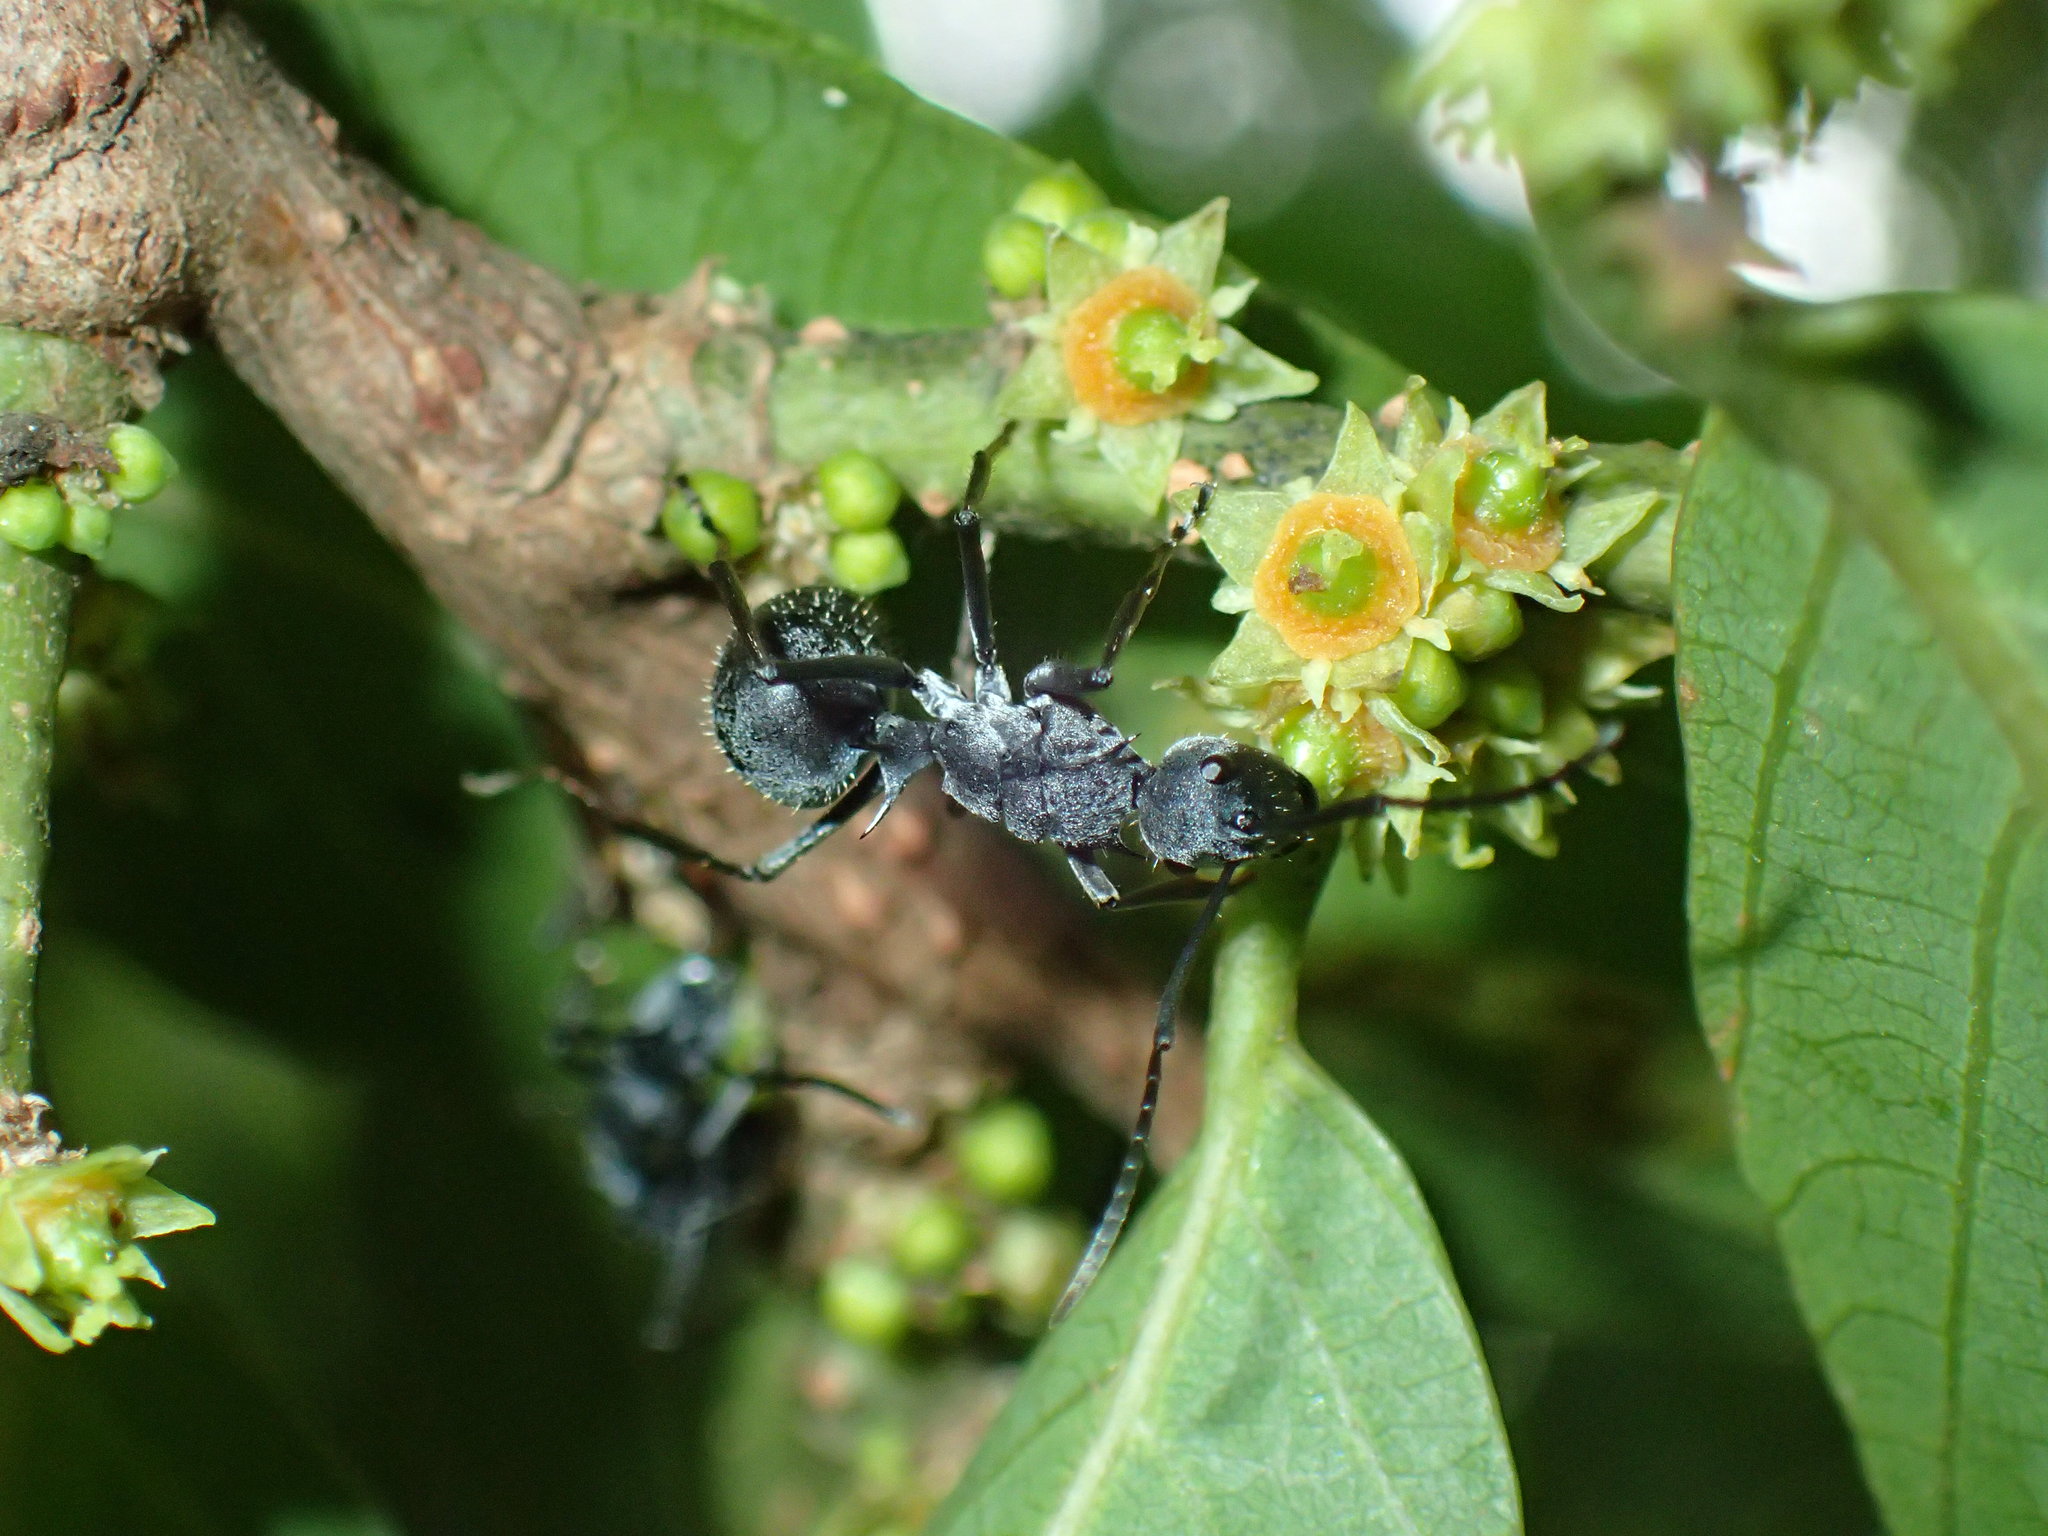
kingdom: Animalia
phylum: Arthropoda
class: Insecta
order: Hymenoptera
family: Formicidae
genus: Polyrhachis
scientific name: Polyrhachis schistacea
